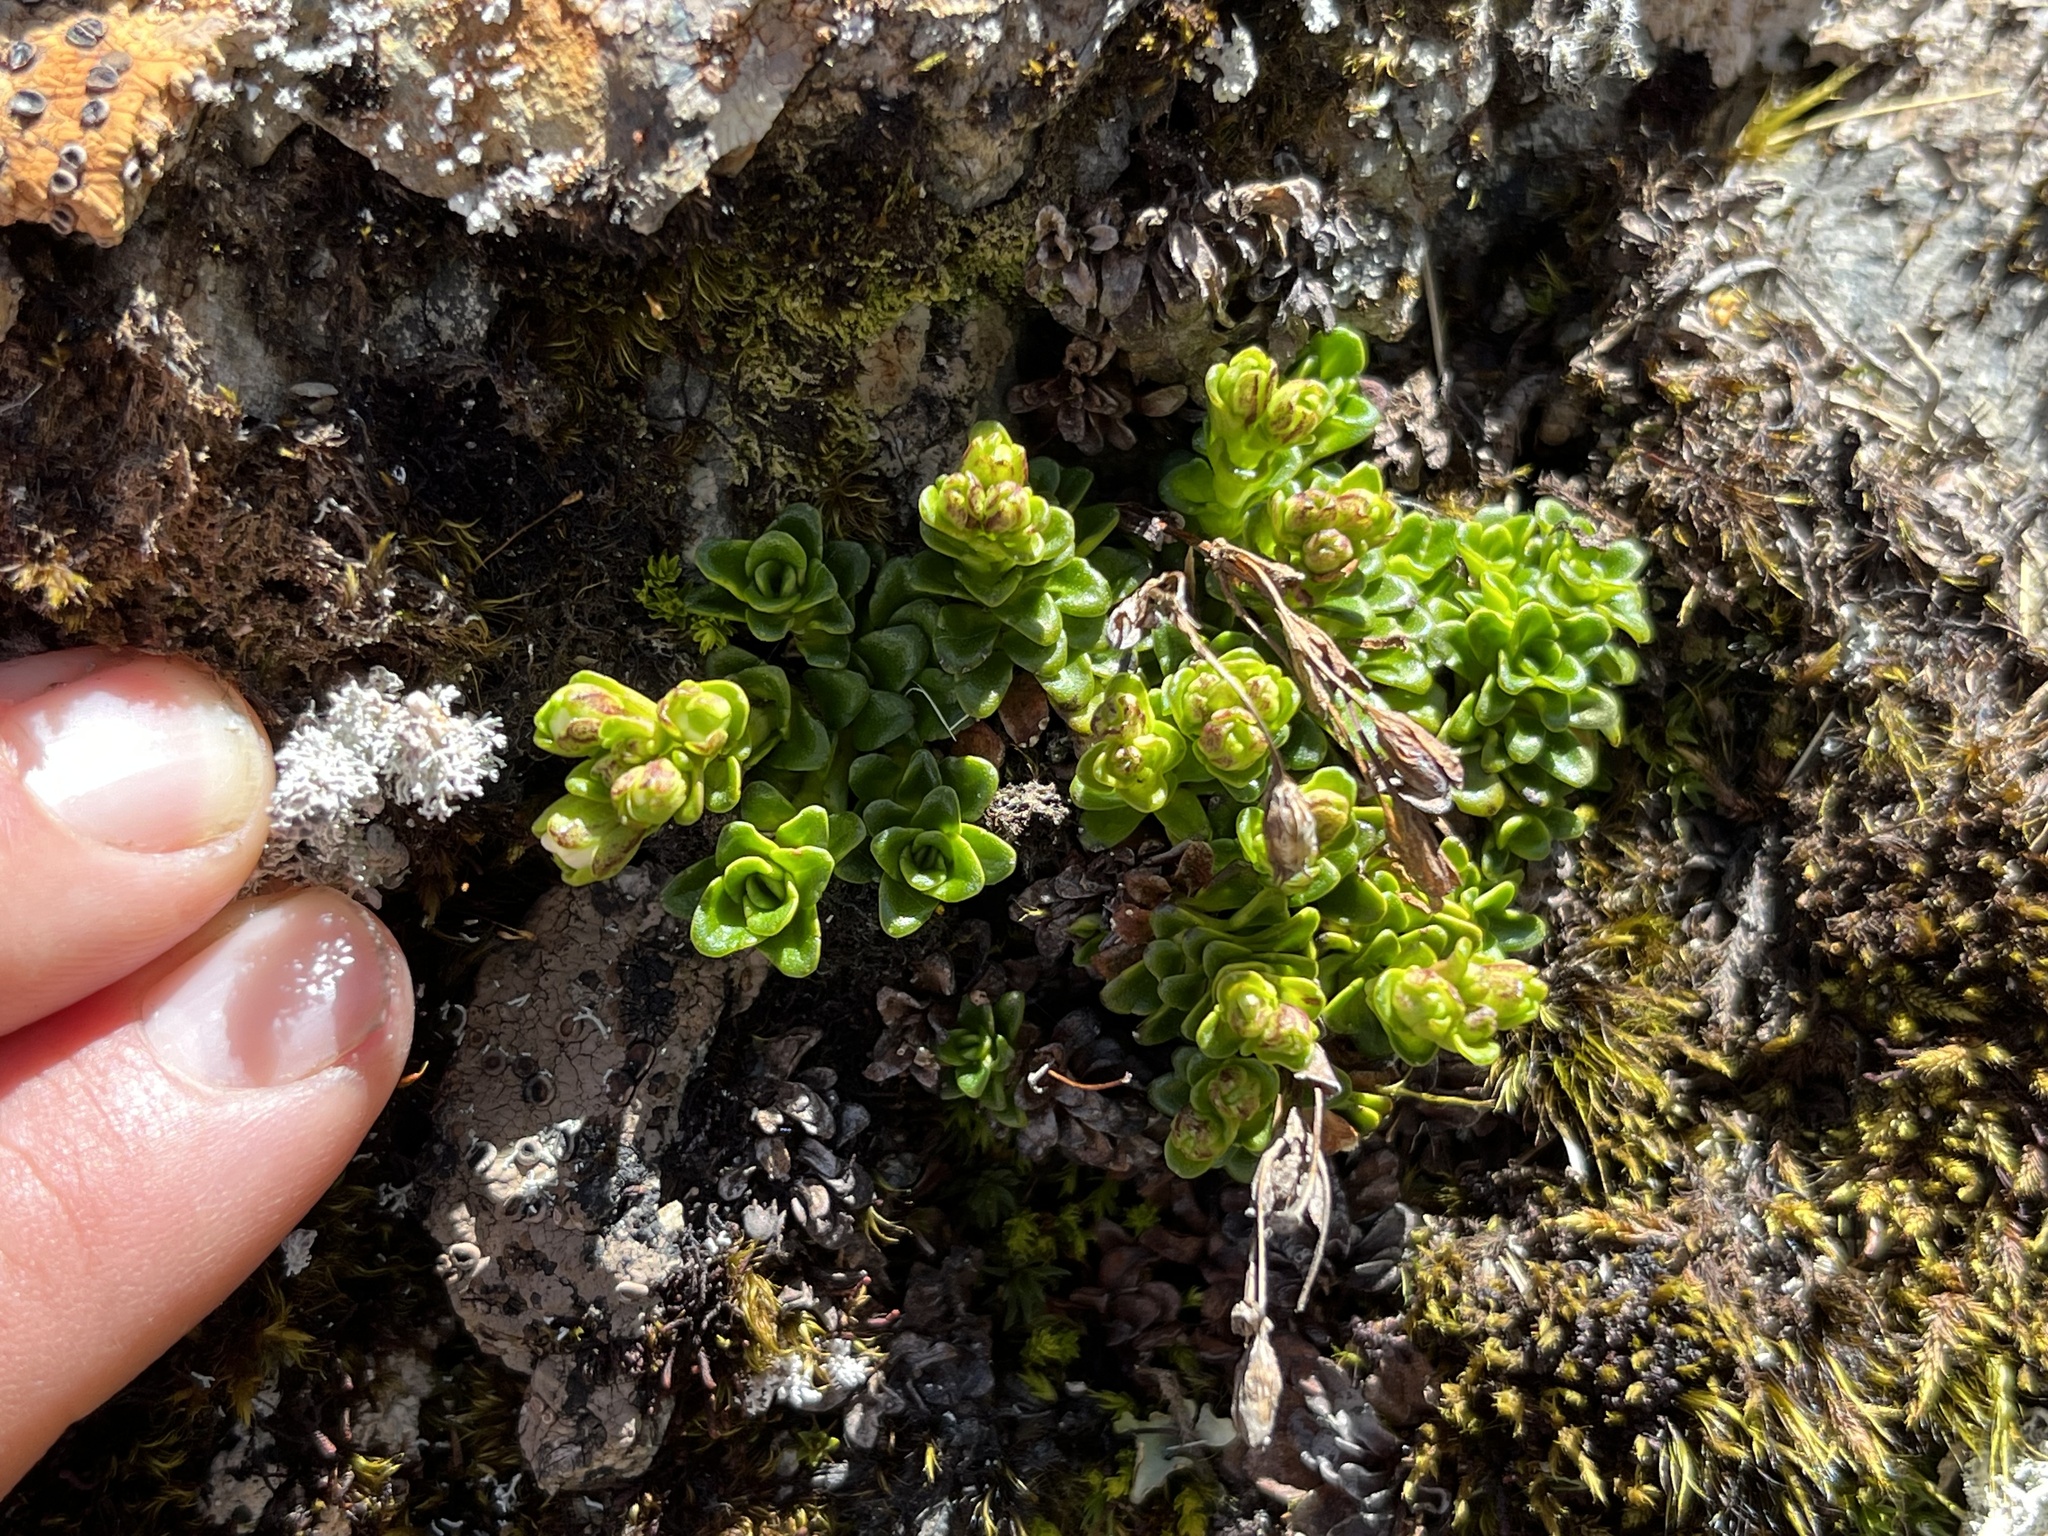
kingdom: Plantae
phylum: Tracheophyta
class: Magnoliopsida
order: Lamiales
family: Plantaginaceae
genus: Ourisia
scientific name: Ourisia caespitosa
